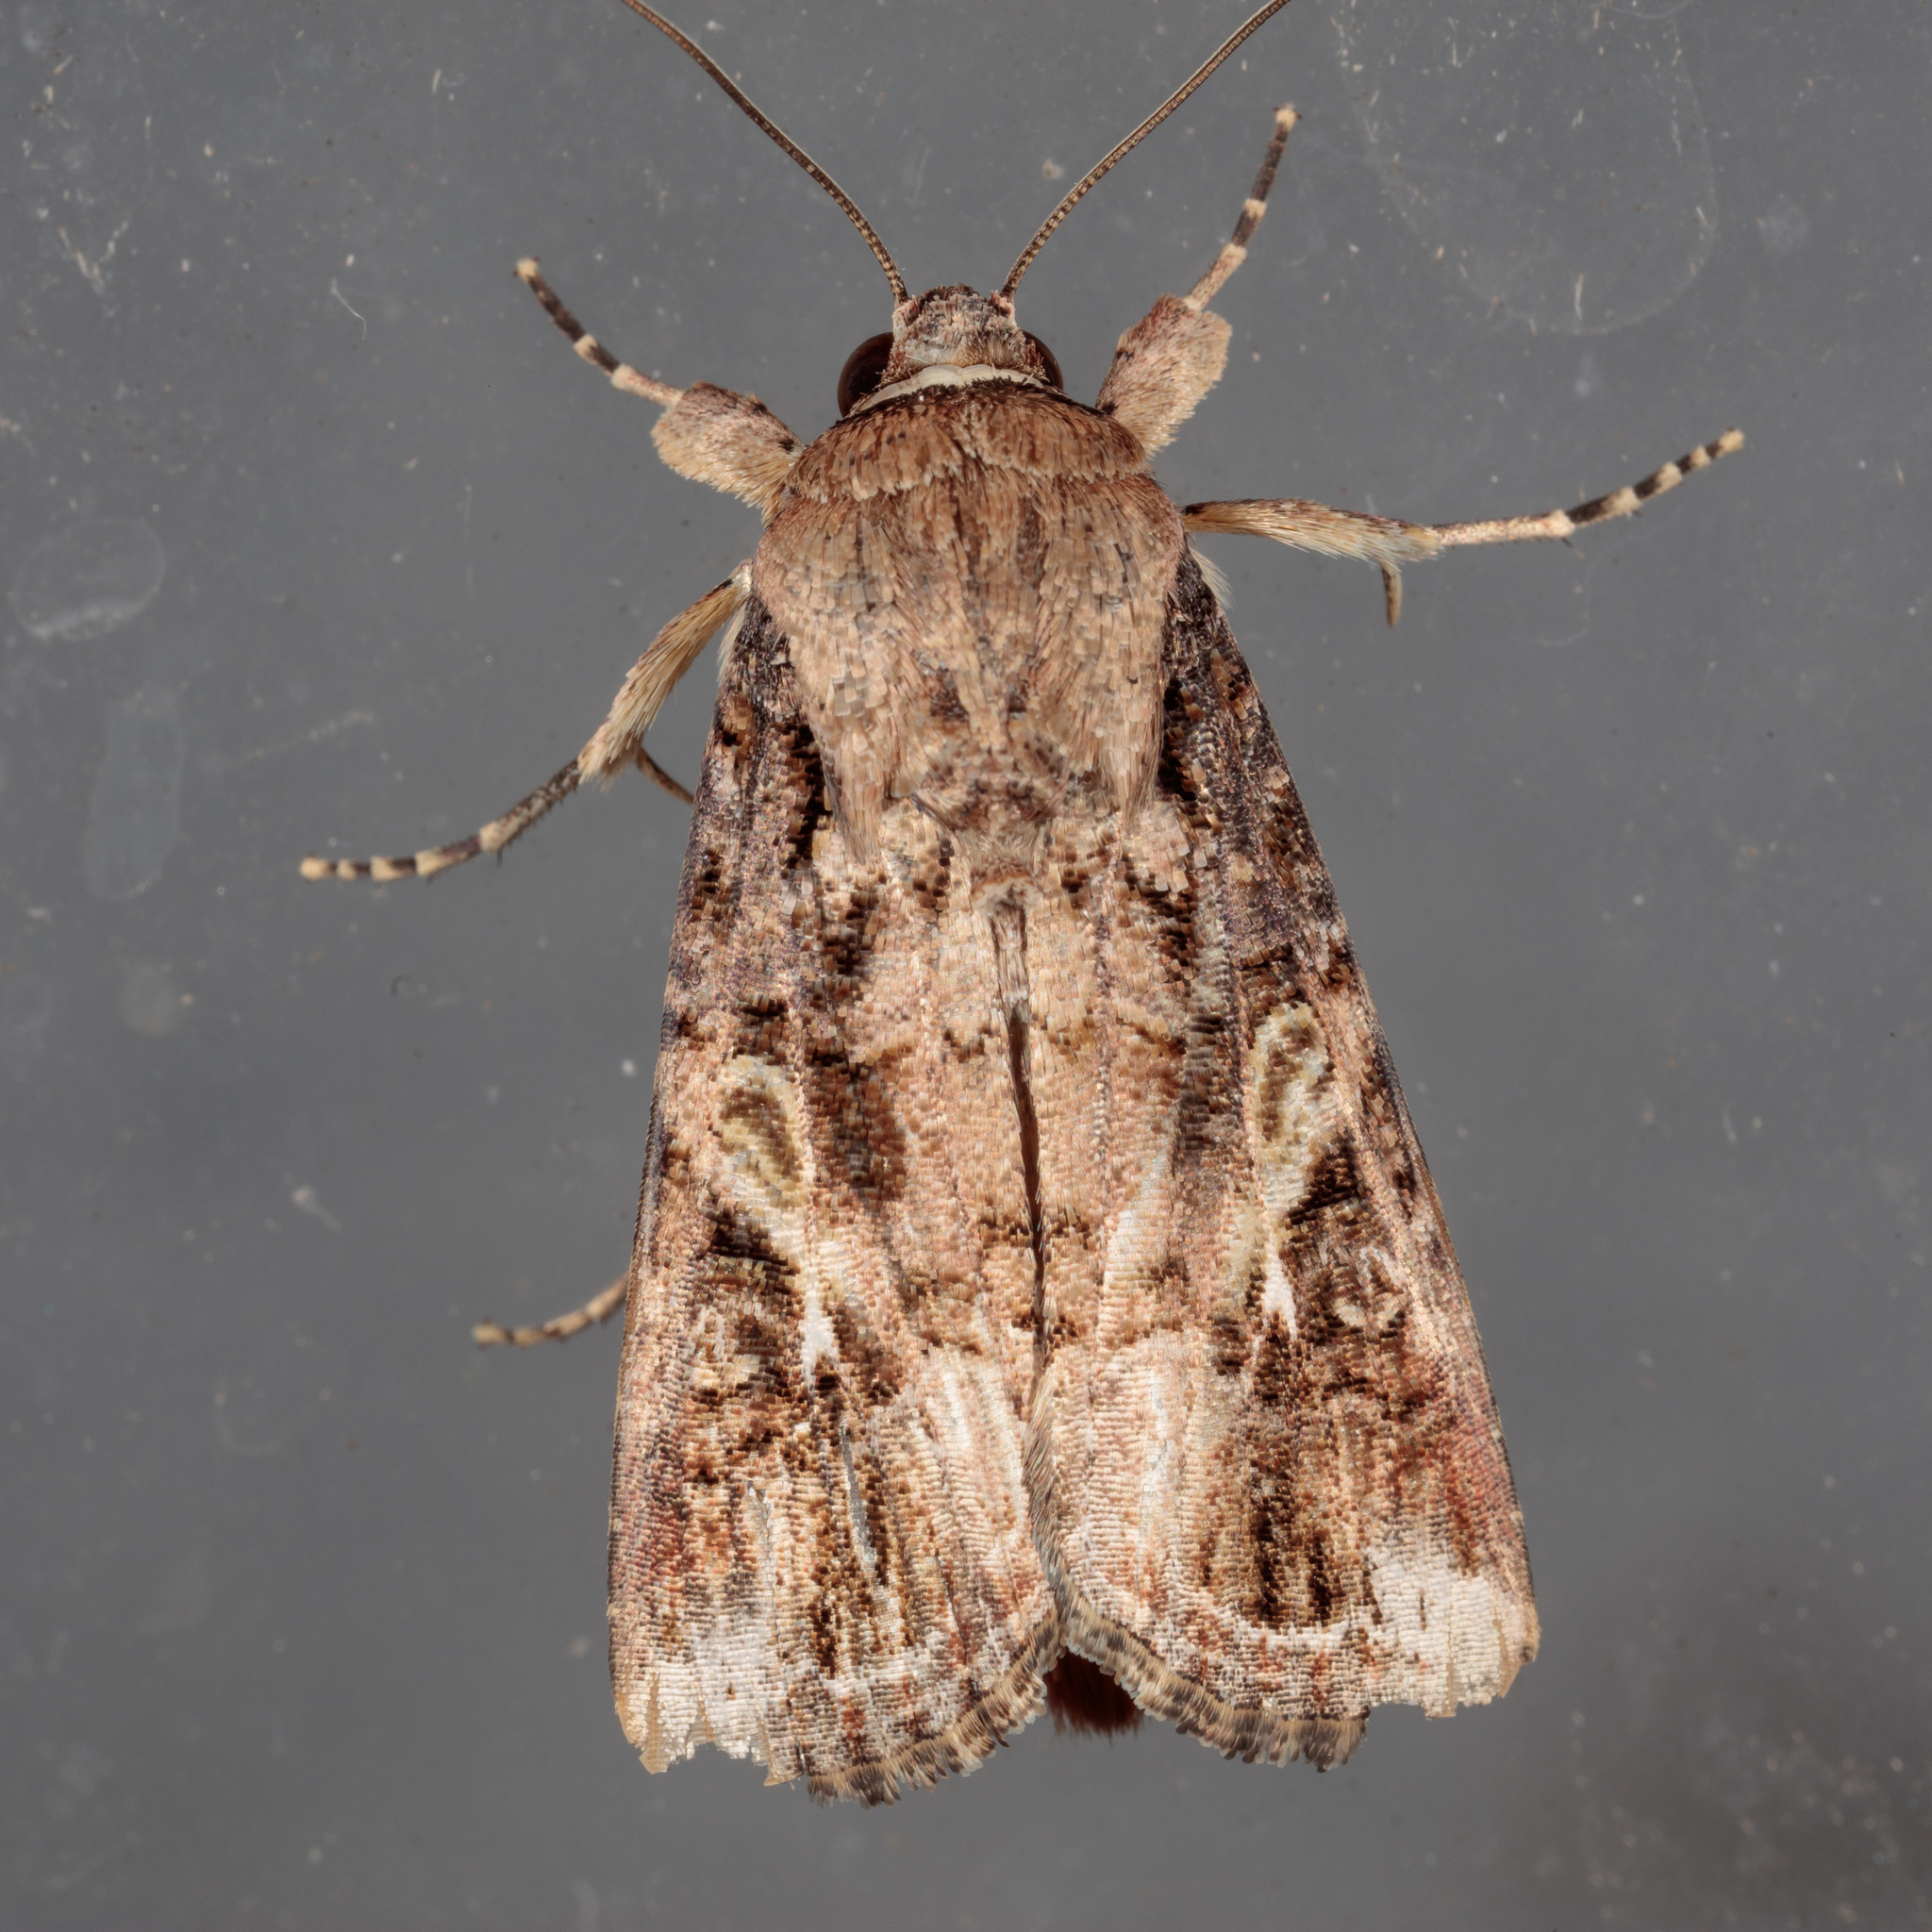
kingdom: Animalia
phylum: Arthropoda
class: Insecta
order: Lepidoptera
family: Noctuidae
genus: Spodoptera
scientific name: Spodoptera frugiperda
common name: Fall armyworm
